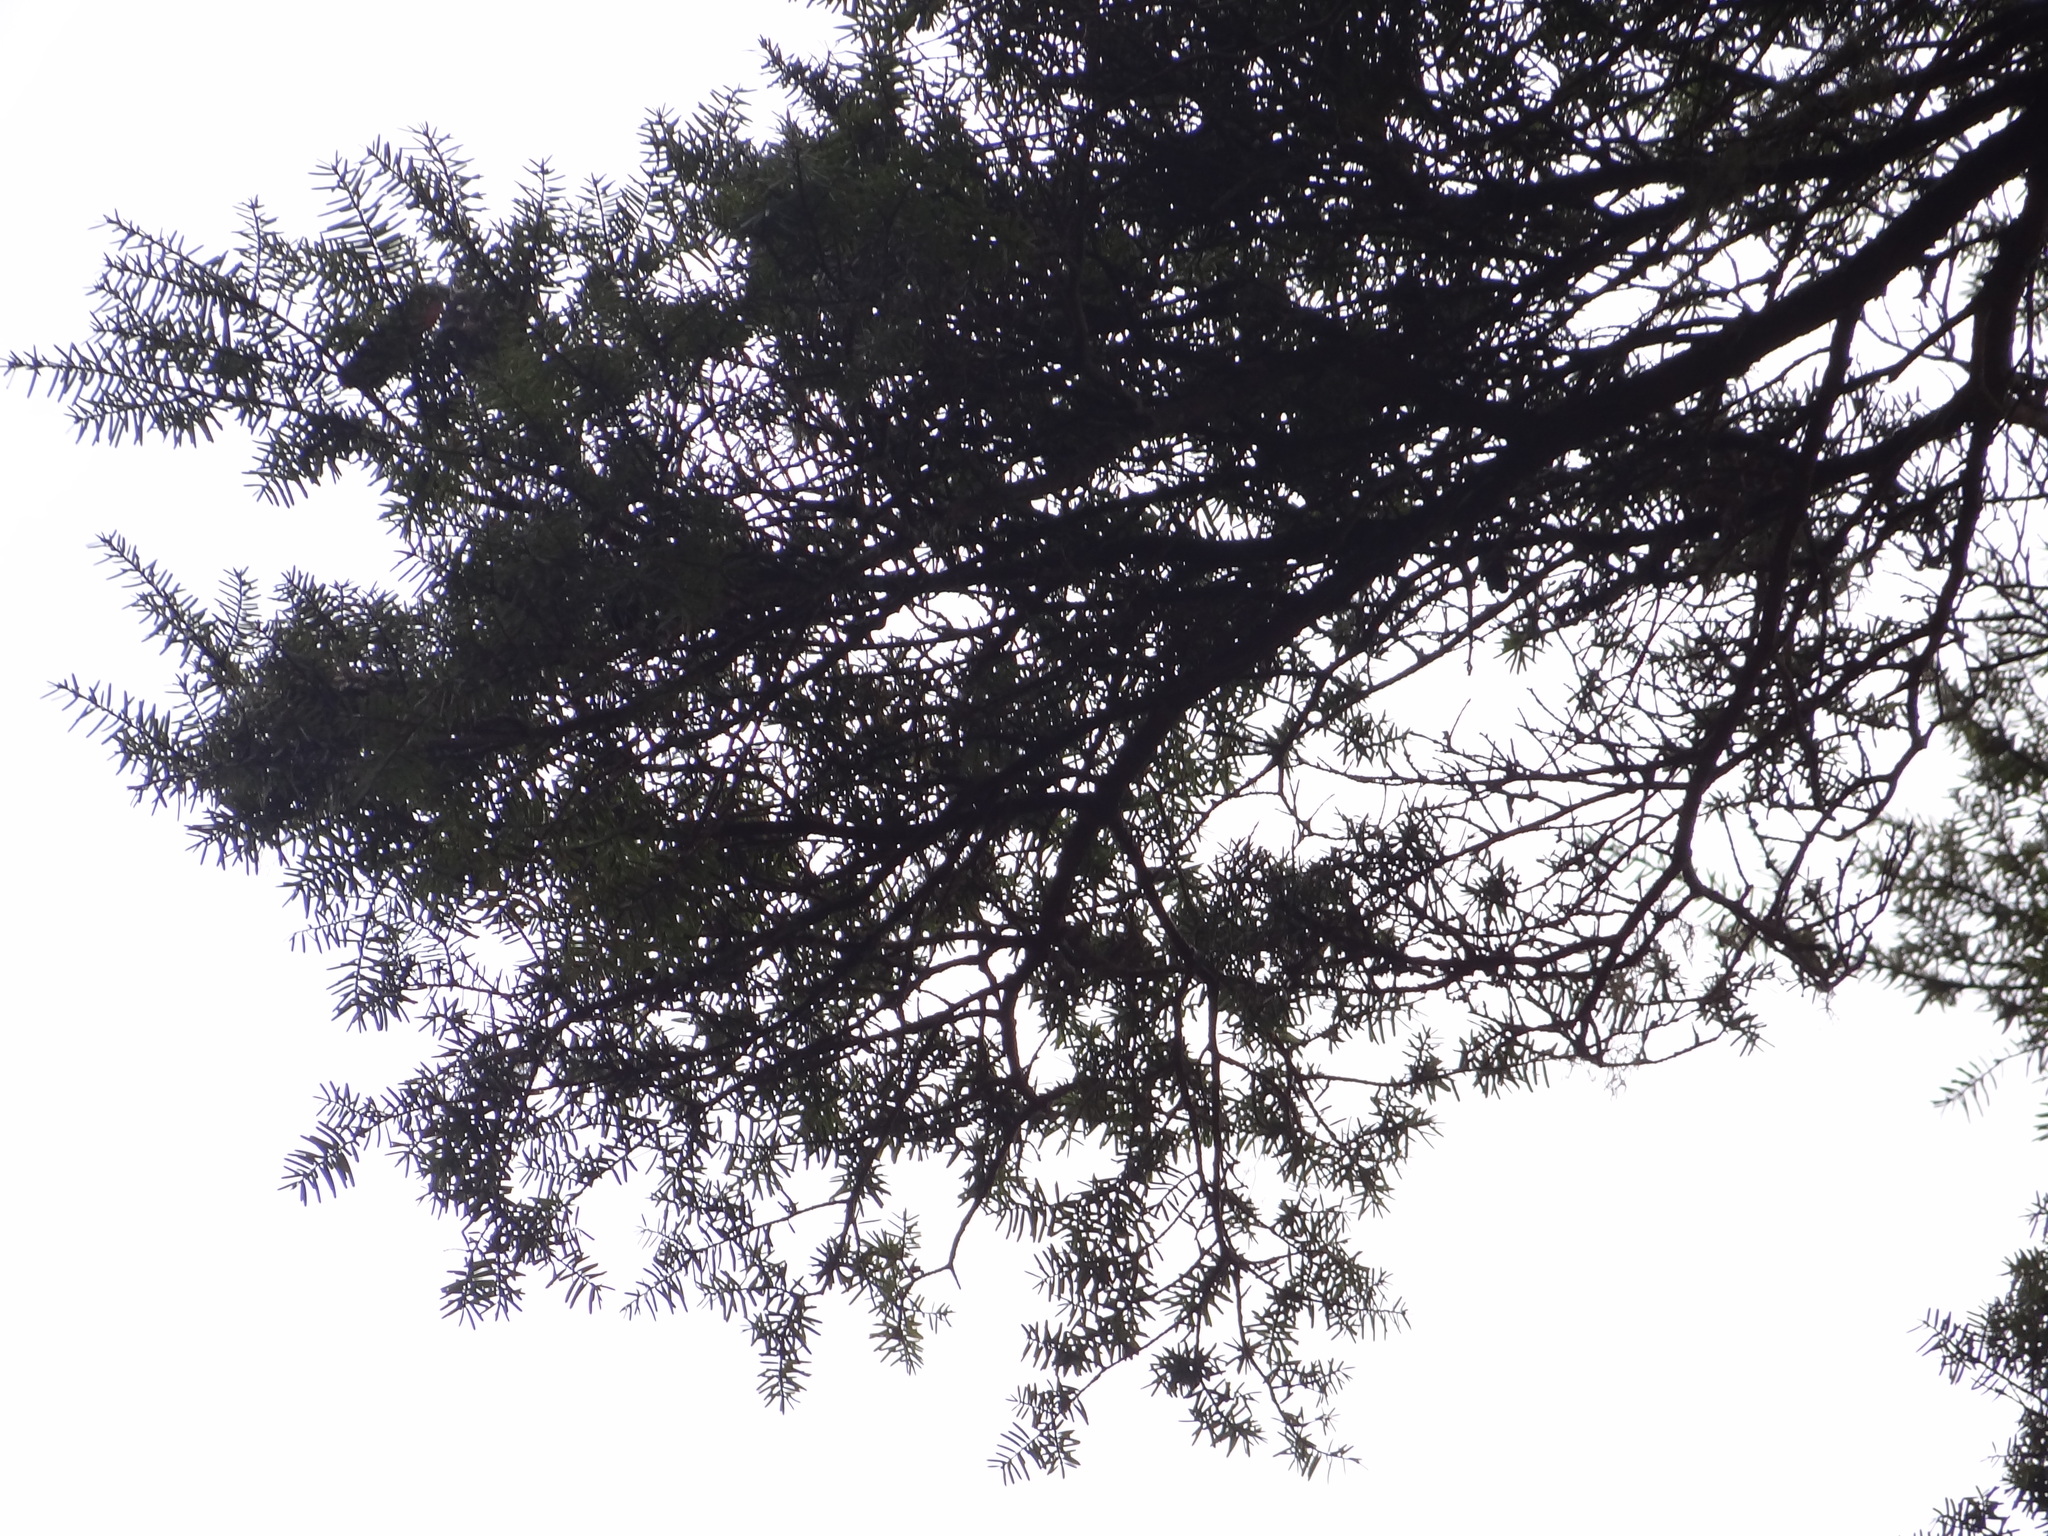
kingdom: Plantae
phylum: Tracheophyta
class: Pinopsida
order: Pinales
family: Taxaceae
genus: Taxus
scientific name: Taxus mairei
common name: Maire's yew
